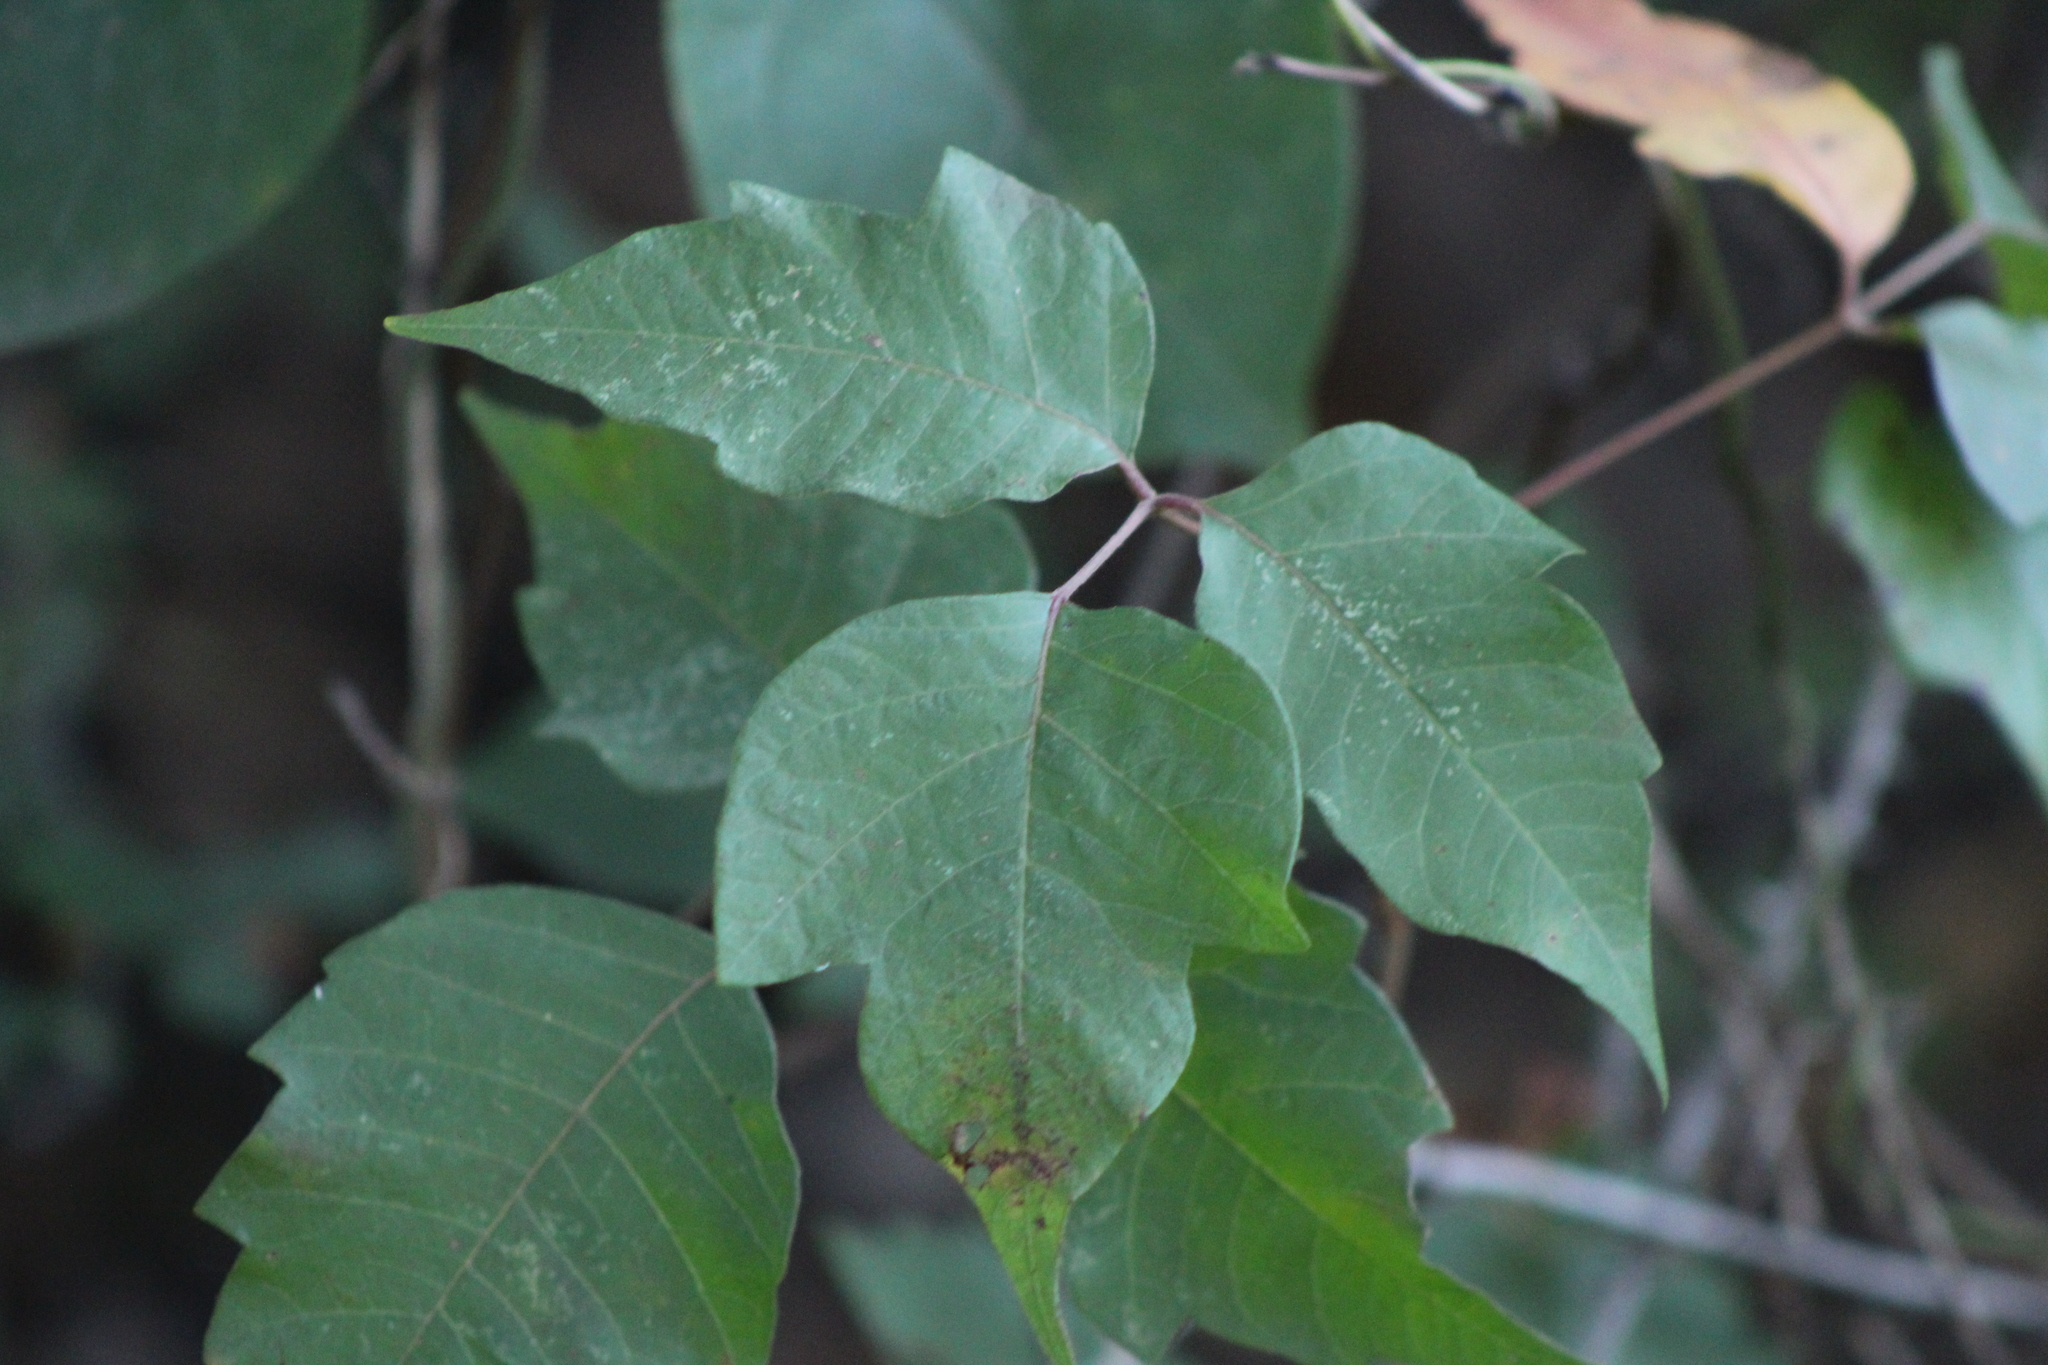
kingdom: Plantae
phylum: Tracheophyta
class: Magnoliopsida
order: Sapindales
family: Anacardiaceae
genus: Toxicodendron
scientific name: Toxicodendron radicans
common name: Poison ivy
